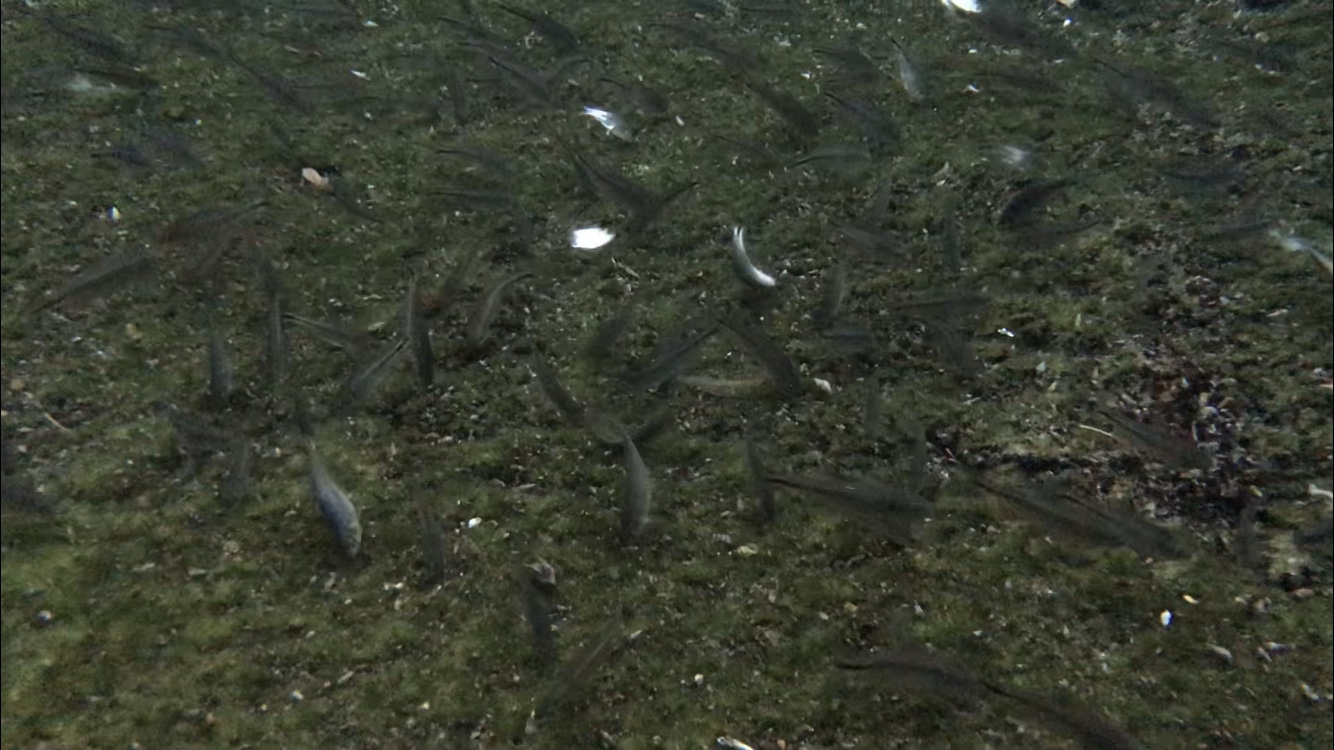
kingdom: Animalia
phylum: Chordata
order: Characiformes
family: Characidae
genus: Astyanax
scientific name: Astyanax mexicanus
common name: Mexican tetra
